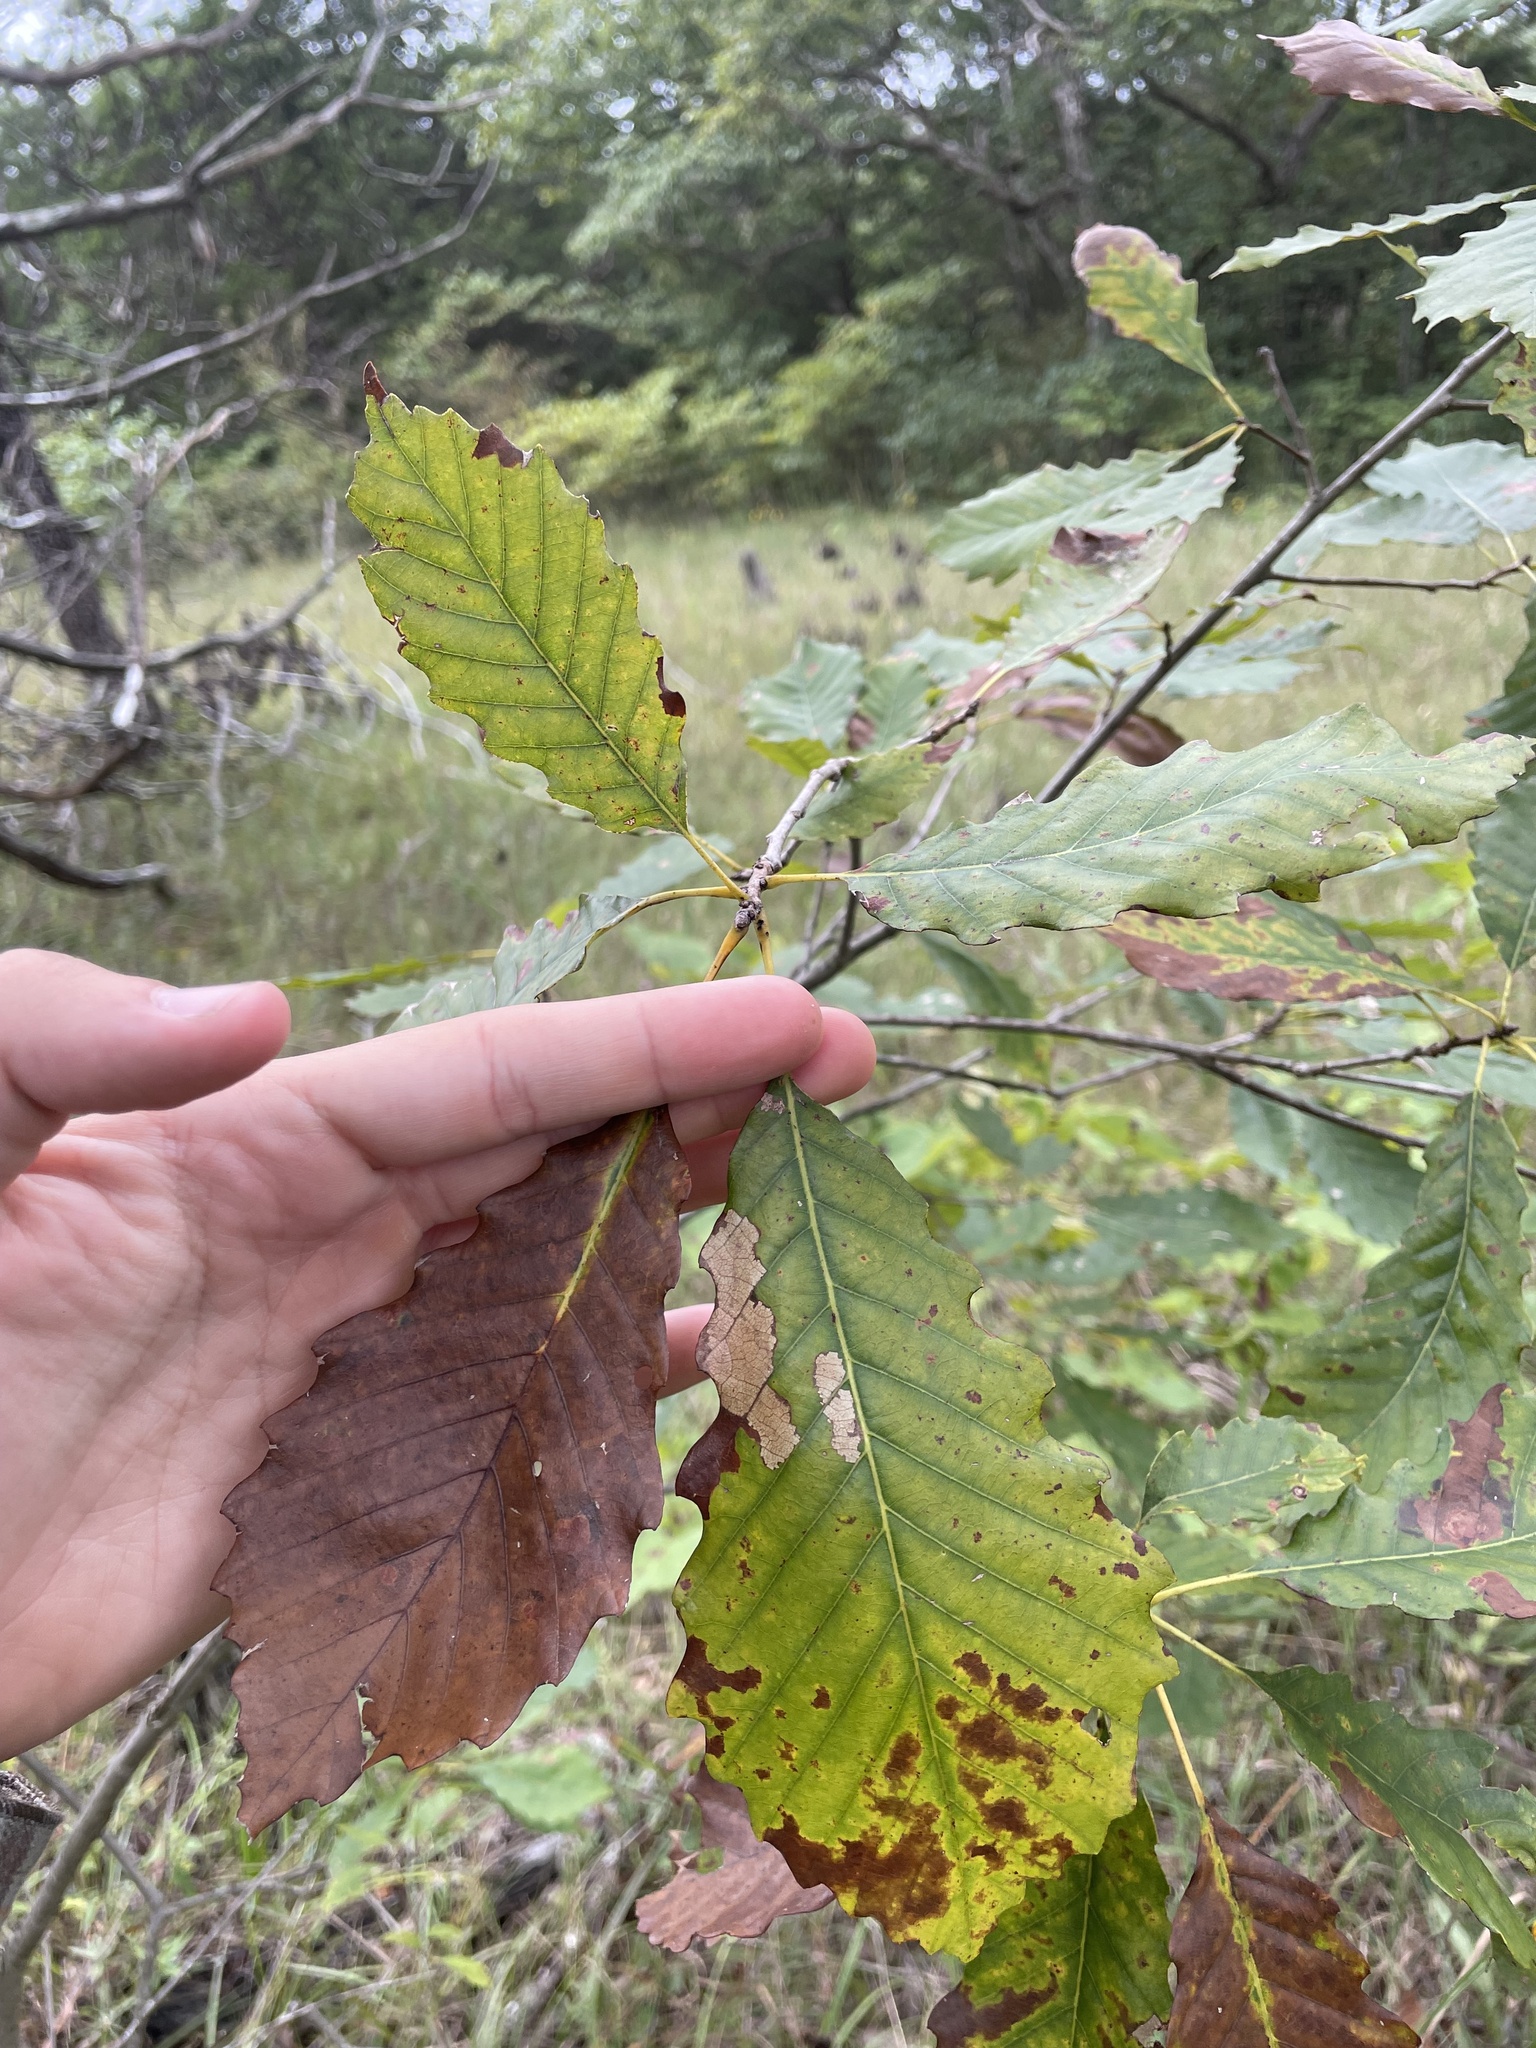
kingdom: Plantae
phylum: Tracheophyta
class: Magnoliopsida
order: Fagales
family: Fagaceae
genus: Quercus
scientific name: Quercus muehlenbergii
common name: Chinkapin oak
